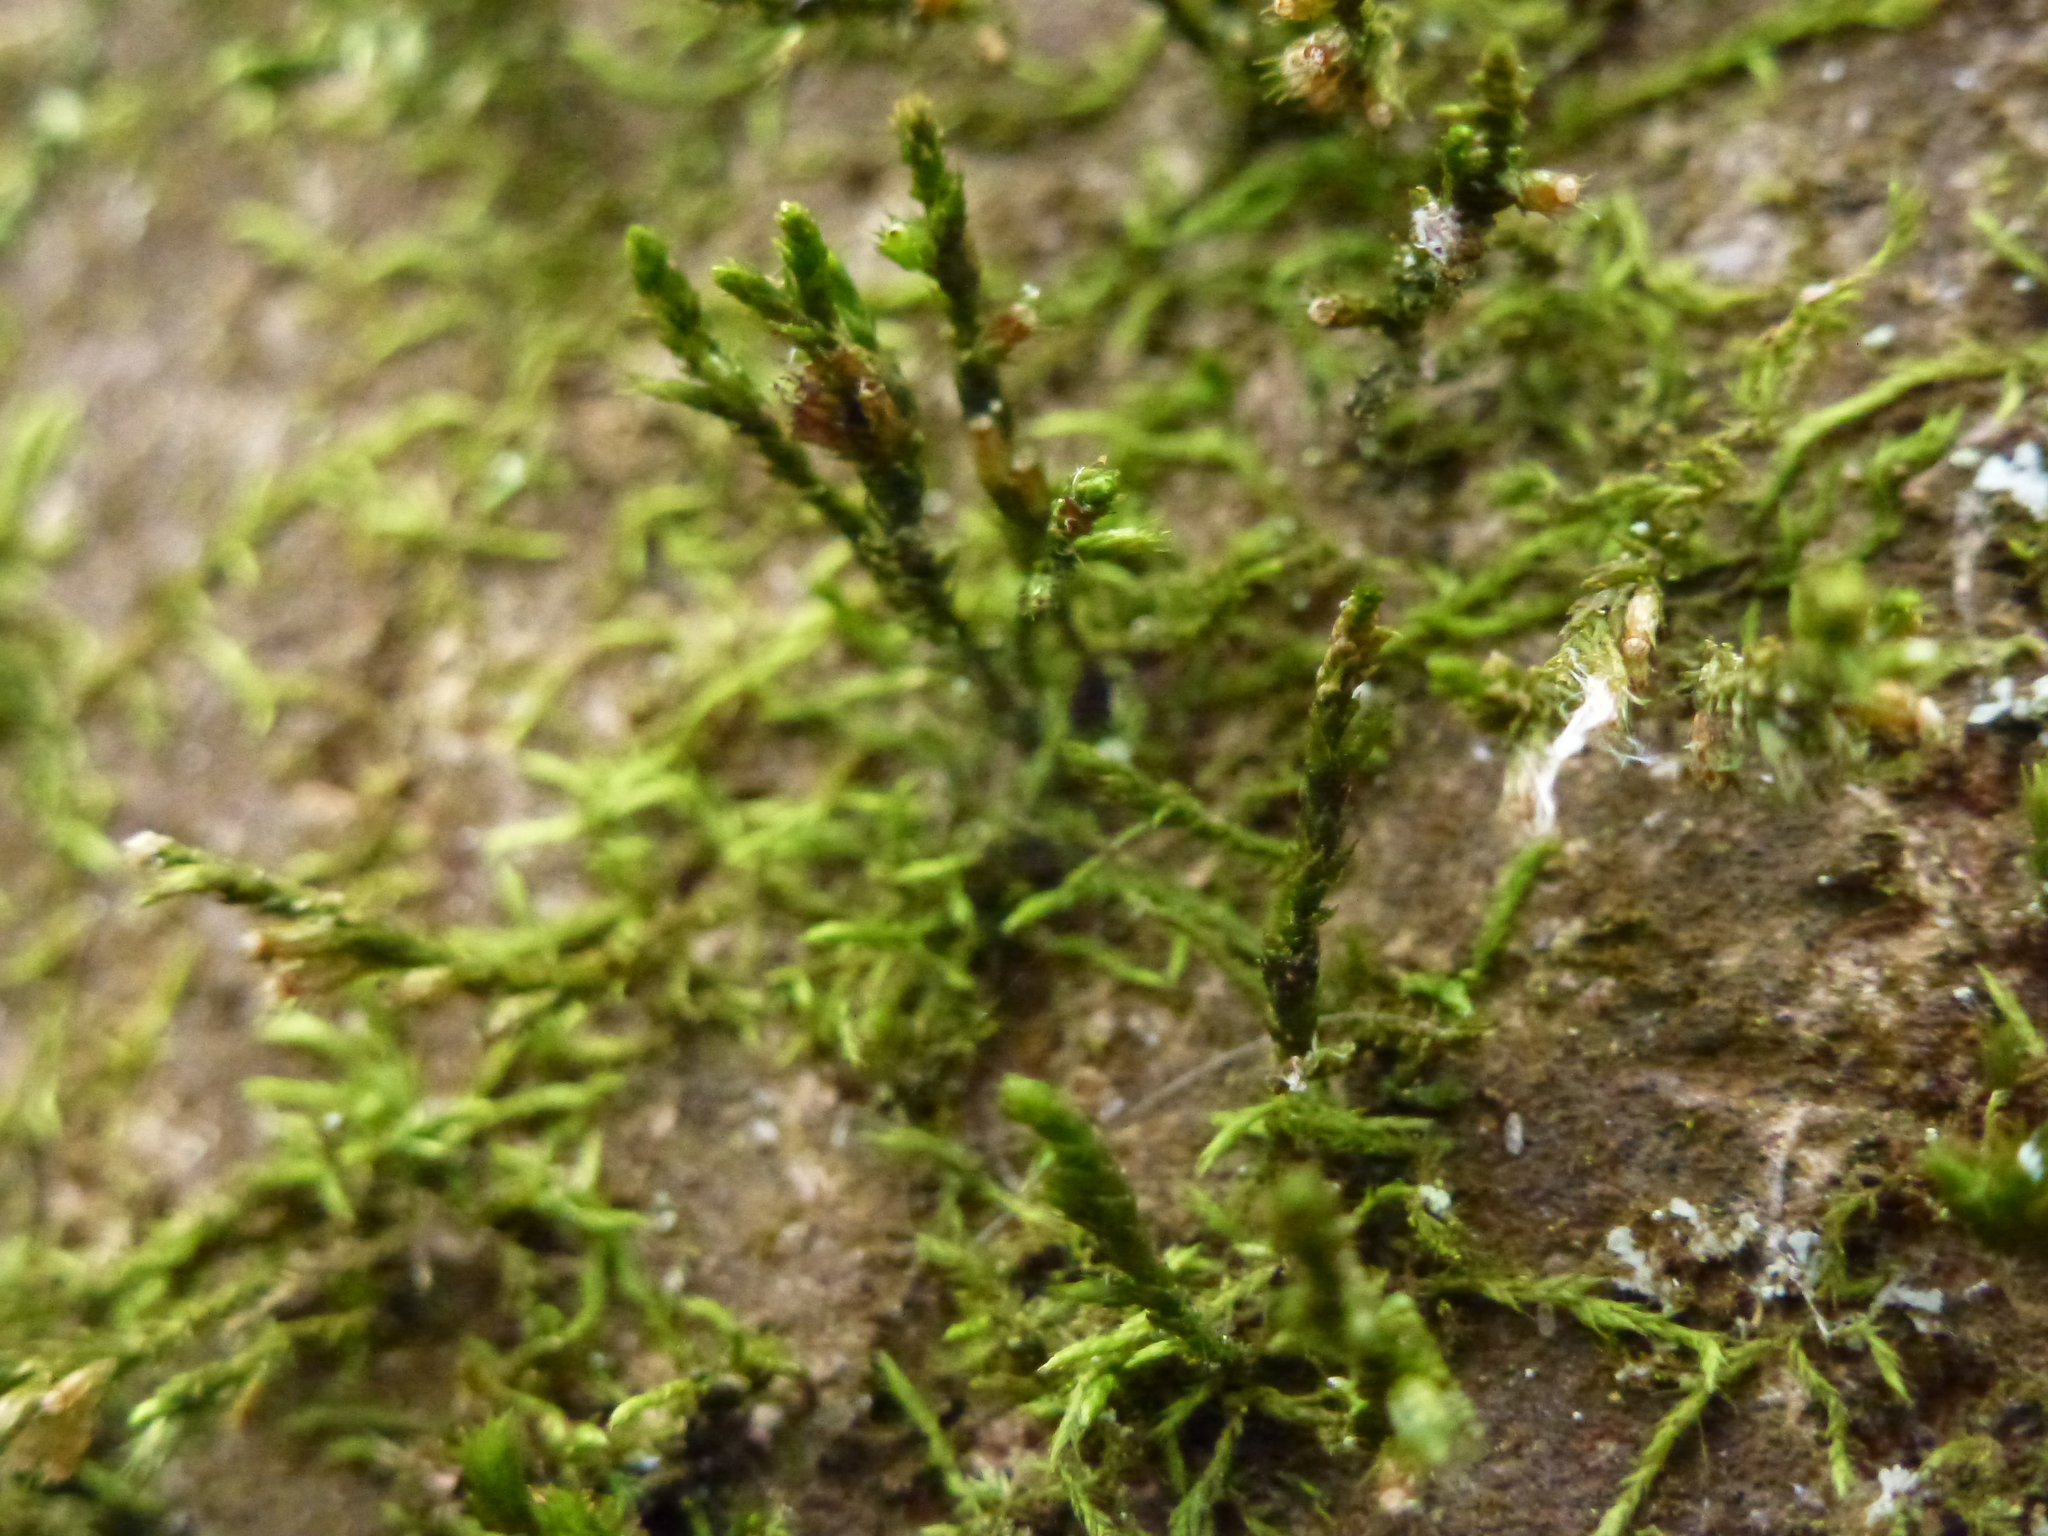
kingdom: Plantae
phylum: Bryophyta
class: Bryopsida
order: Hypnales
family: Cryphaeaceae
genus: Cryphaea
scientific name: Cryphaea heteromalla
